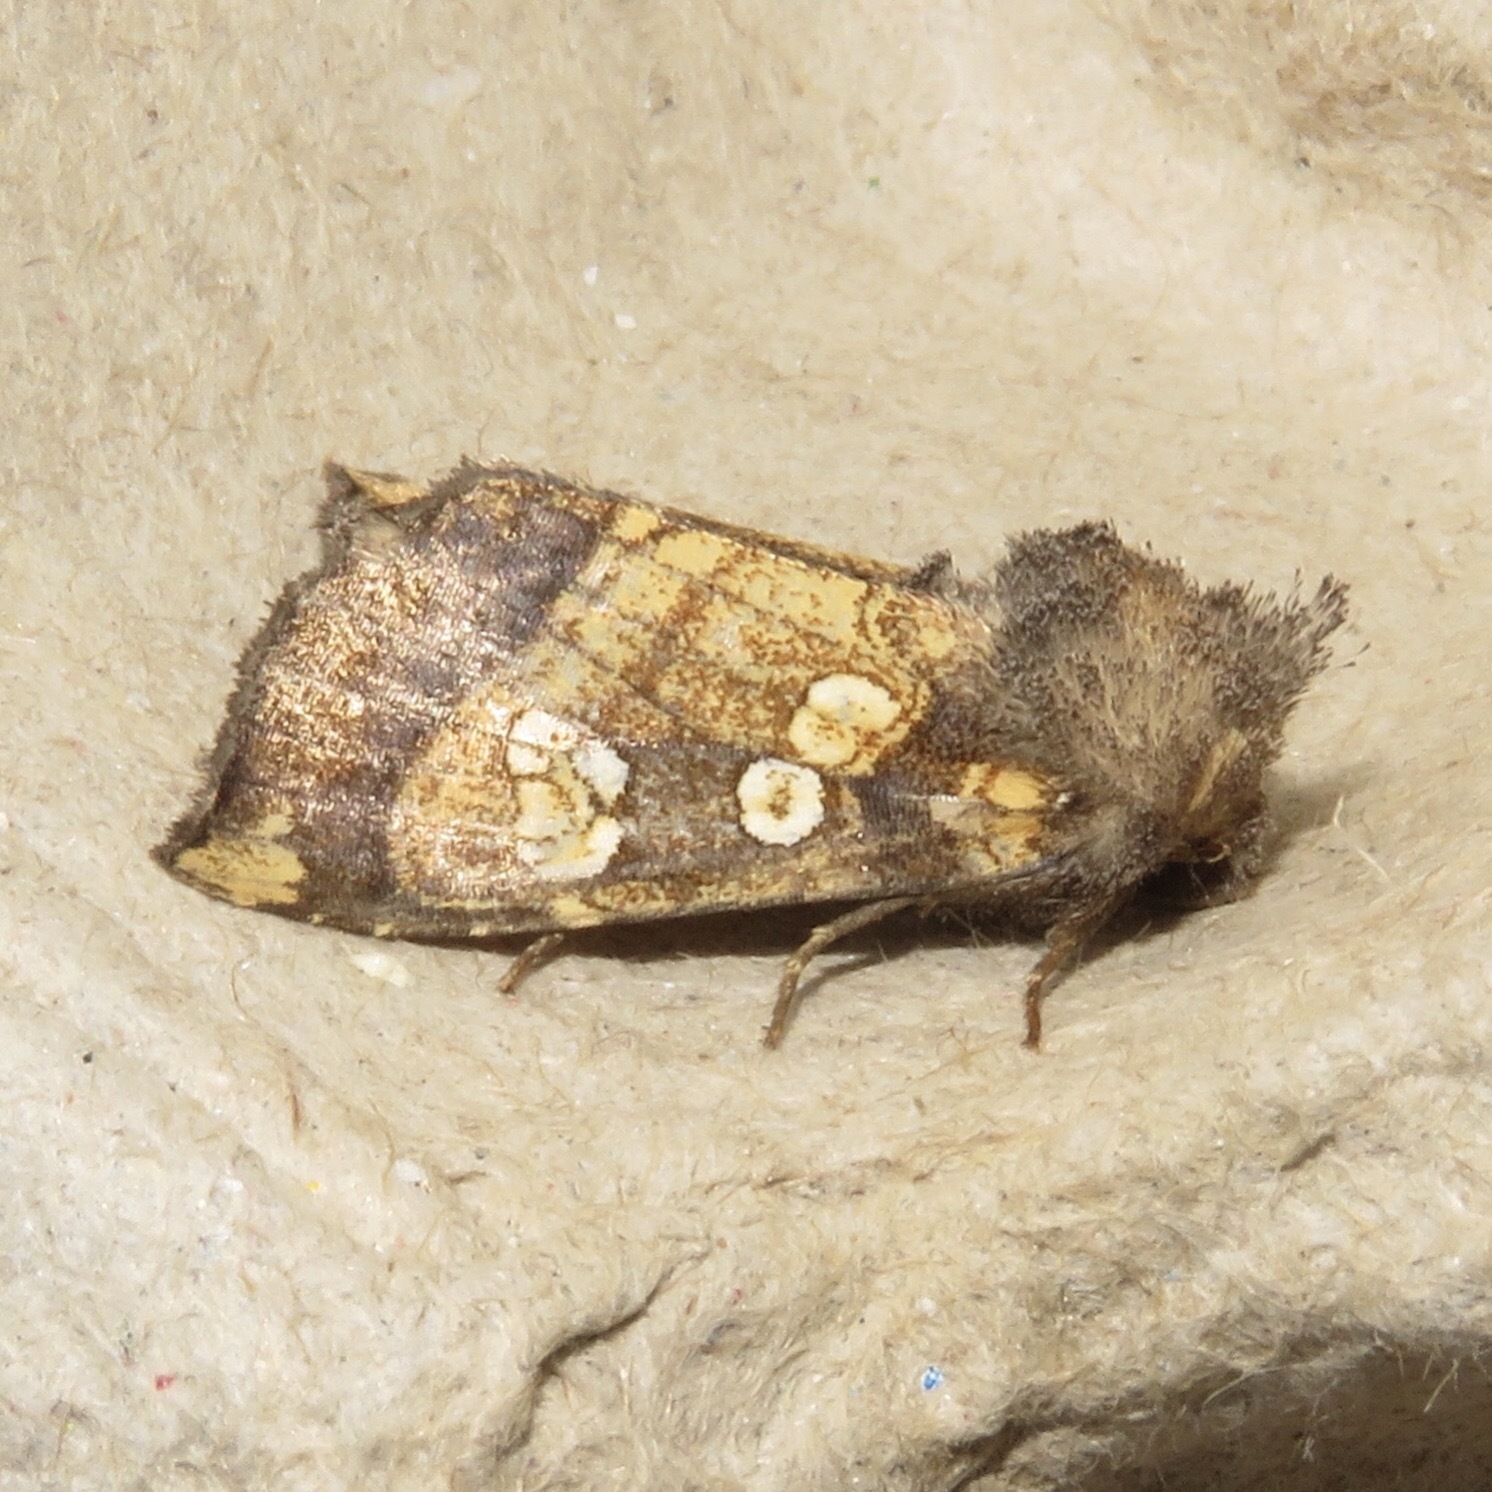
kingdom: Animalia
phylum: Arthropoda
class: Insecta
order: Lepidoptera
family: Noctuidae
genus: Papaipema
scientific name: Papaipema cataphracta
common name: Burdock borer
